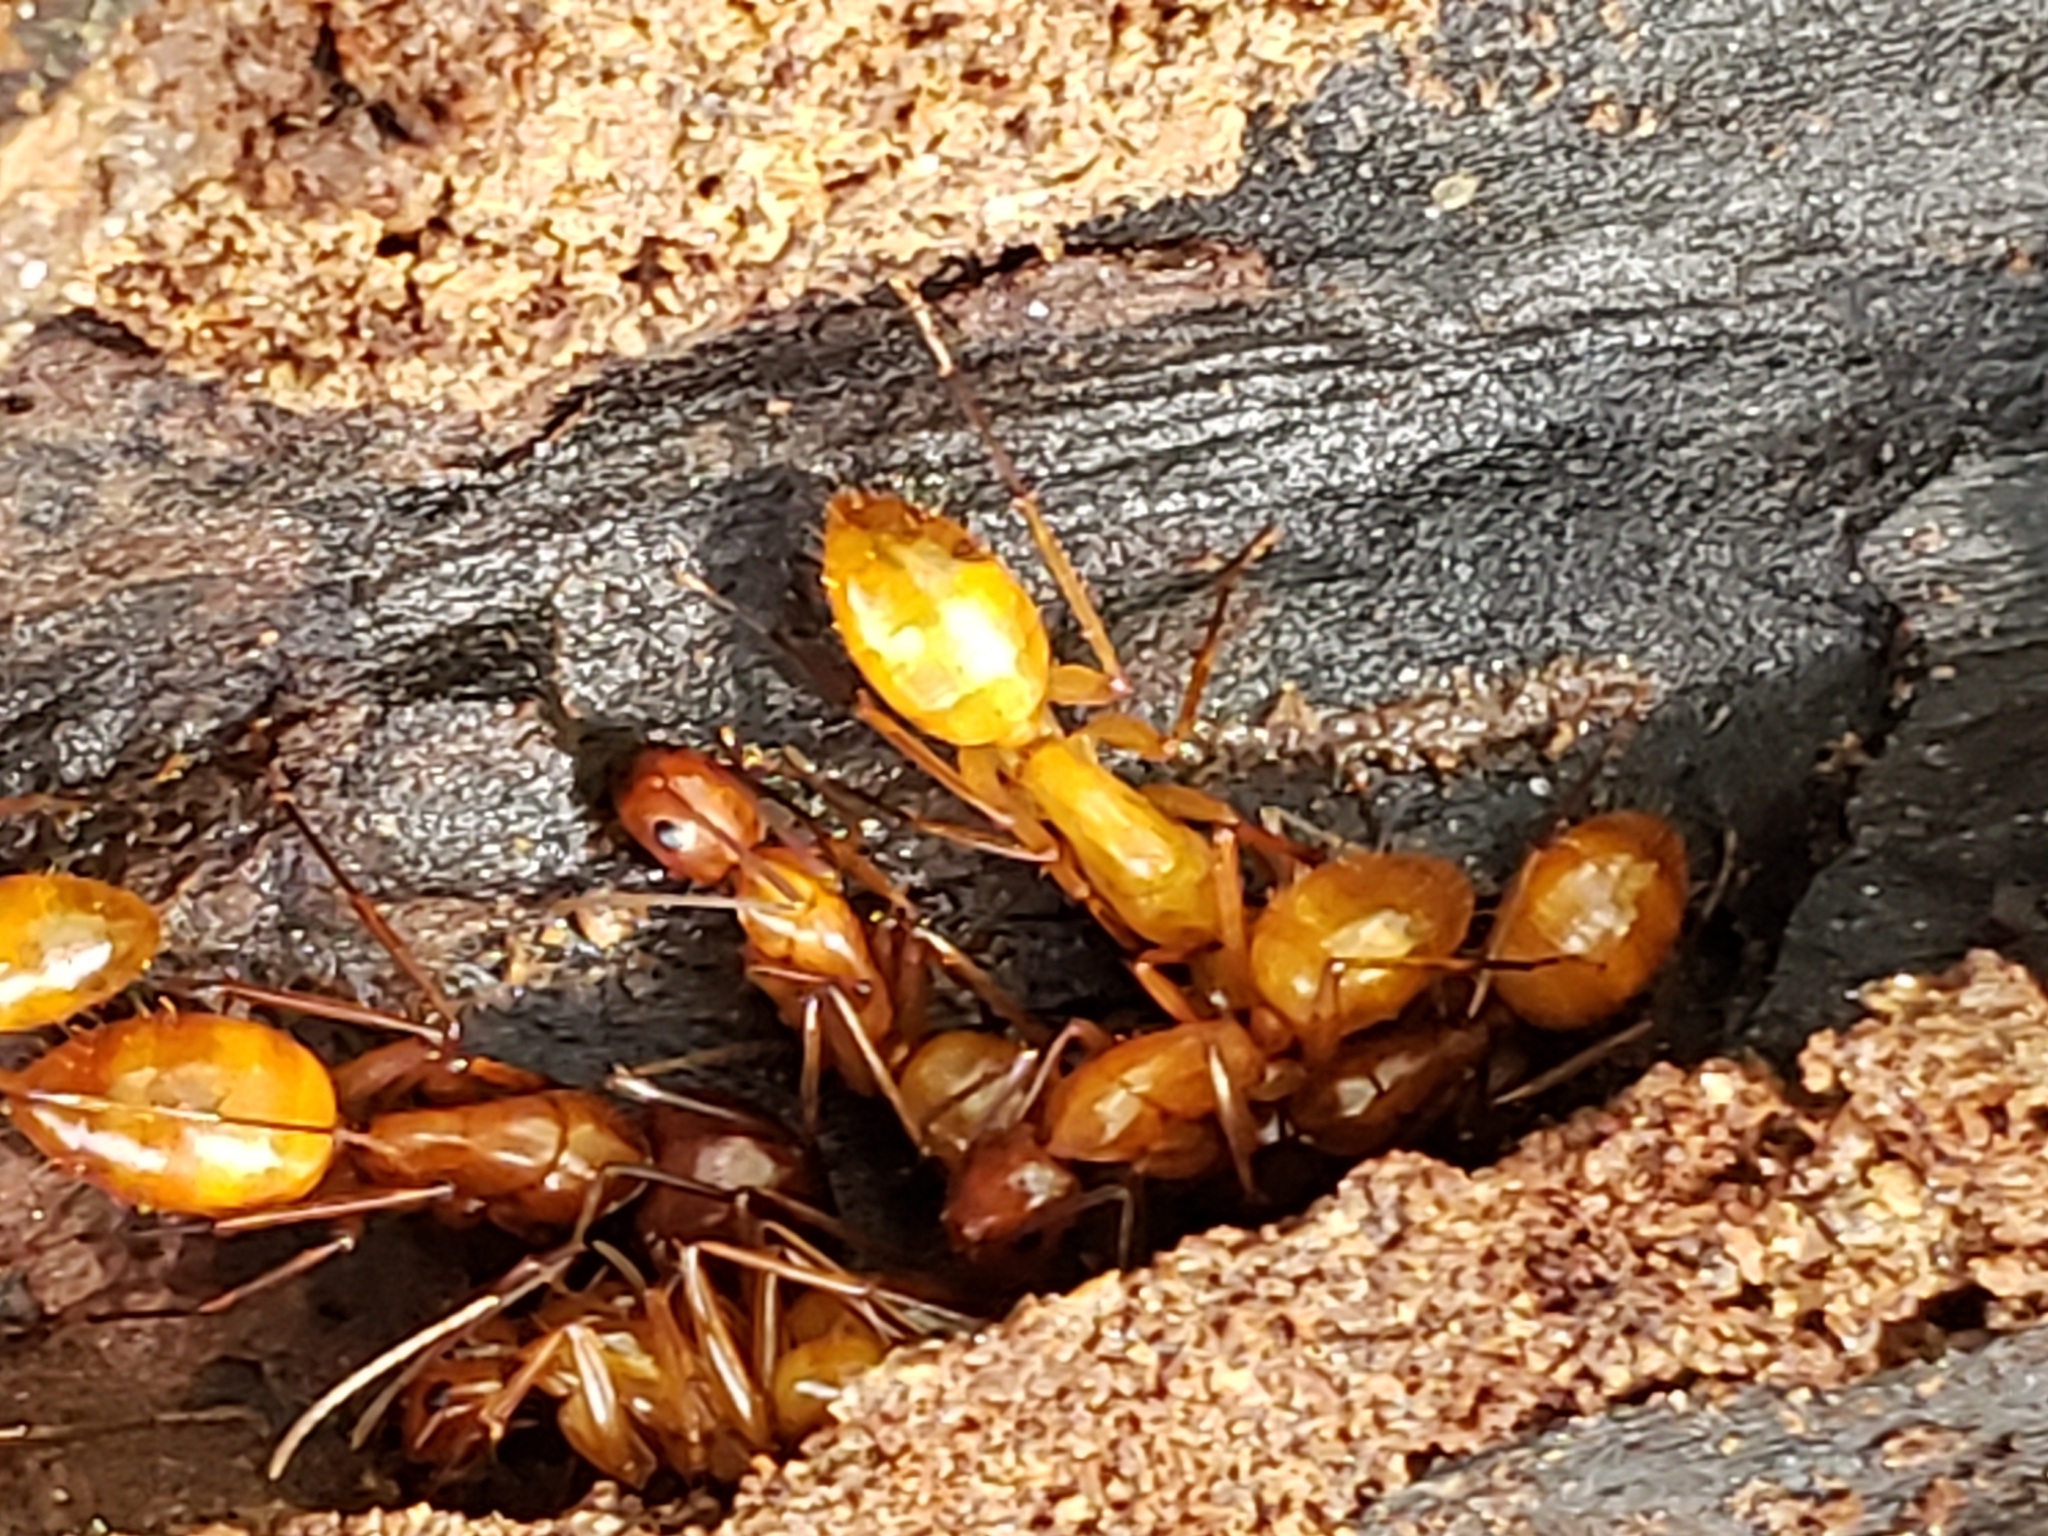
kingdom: Animalia
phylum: Arthropoda
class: Insecta
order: Hymenoptera
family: Formicidae
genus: Camponotus
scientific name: Camponotus castaneus
